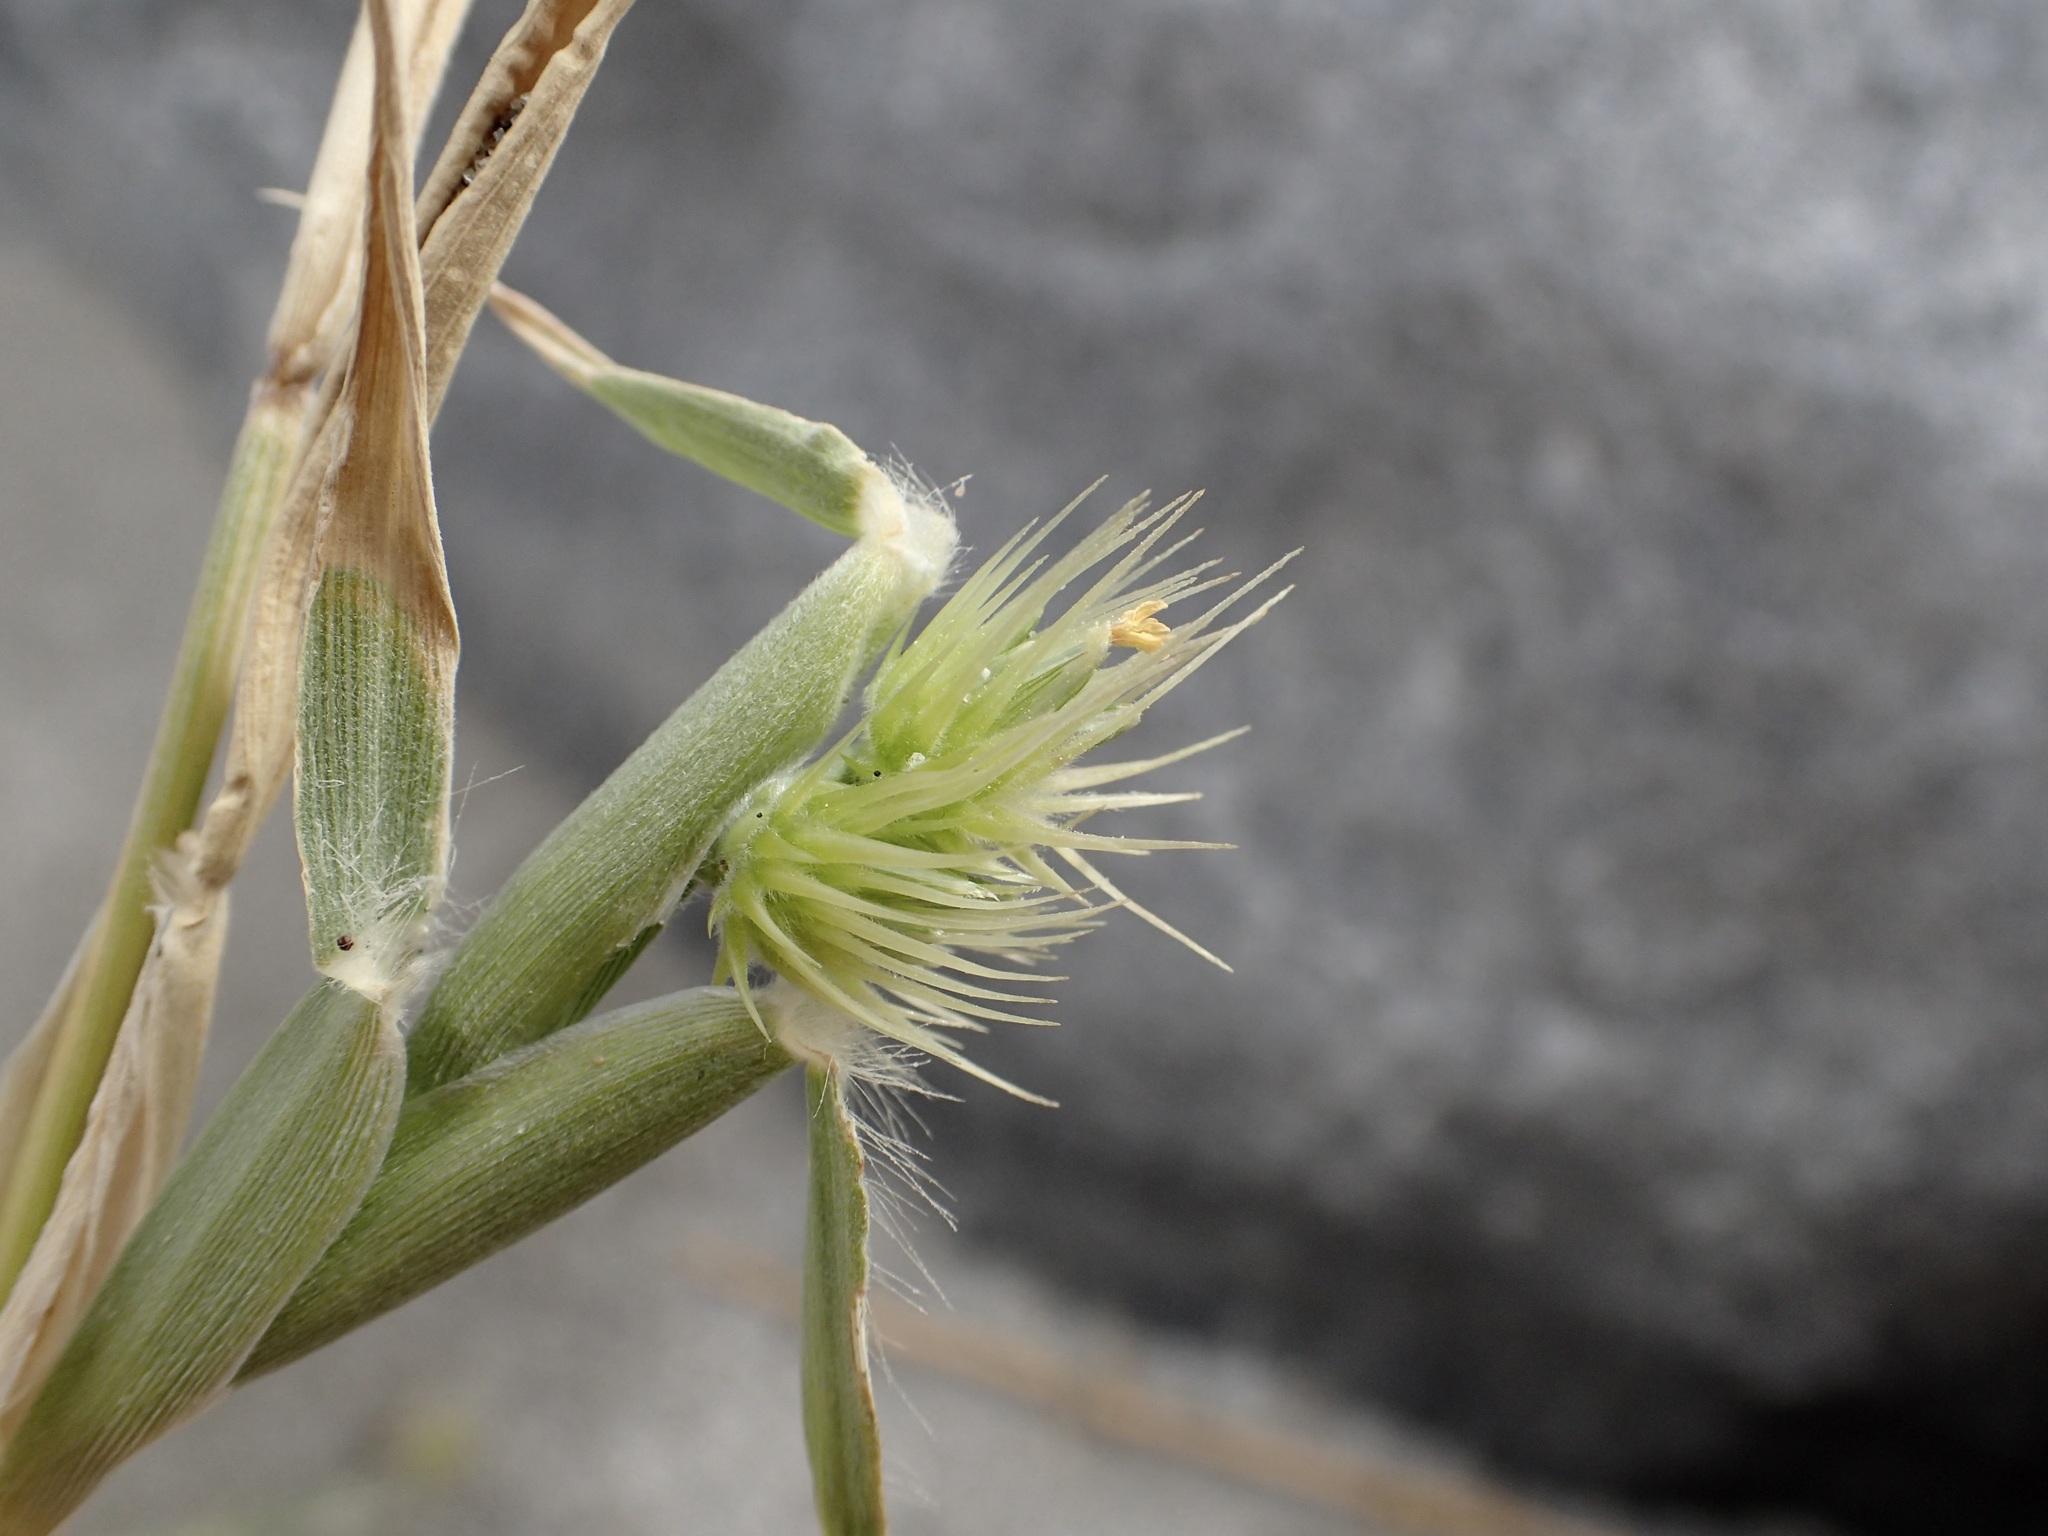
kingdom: Plantae
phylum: Tracheophyta
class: Liliopsida
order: Poales
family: Poaceae
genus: Cenchrus
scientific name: Cenchrus palmeri
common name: Giant sandbur
